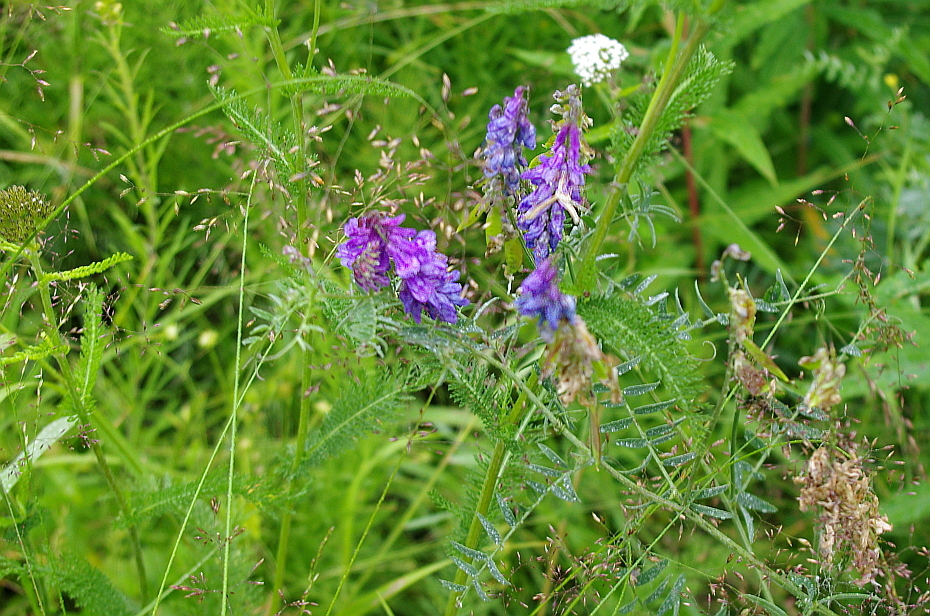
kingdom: Plantae
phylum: Tracheophyta
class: Magnoliopsida
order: Fabales
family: Fabaceae
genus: Vicia
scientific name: Vicia cracca
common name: Bird vetch
